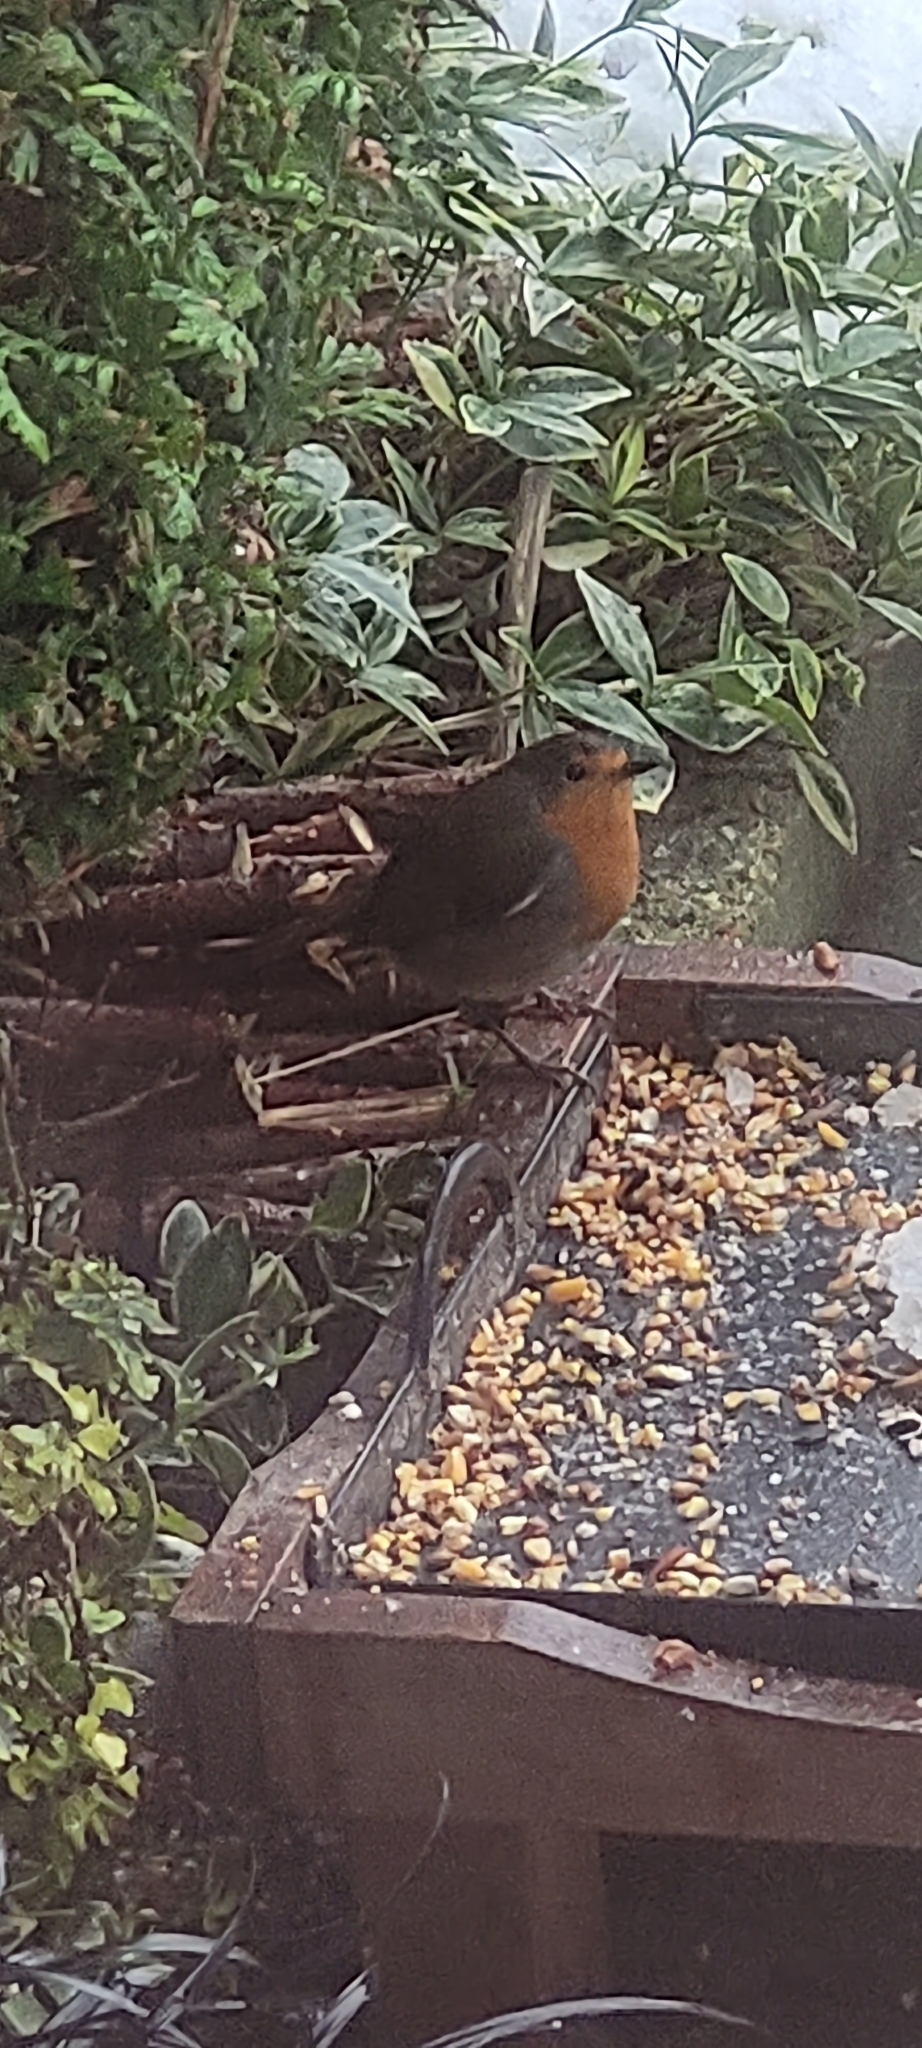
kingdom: Animalia
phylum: Chordata
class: Aves
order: Passeriformes
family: Muscicapidae
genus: Erithacus
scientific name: Erithacus rubecula
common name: European robin
